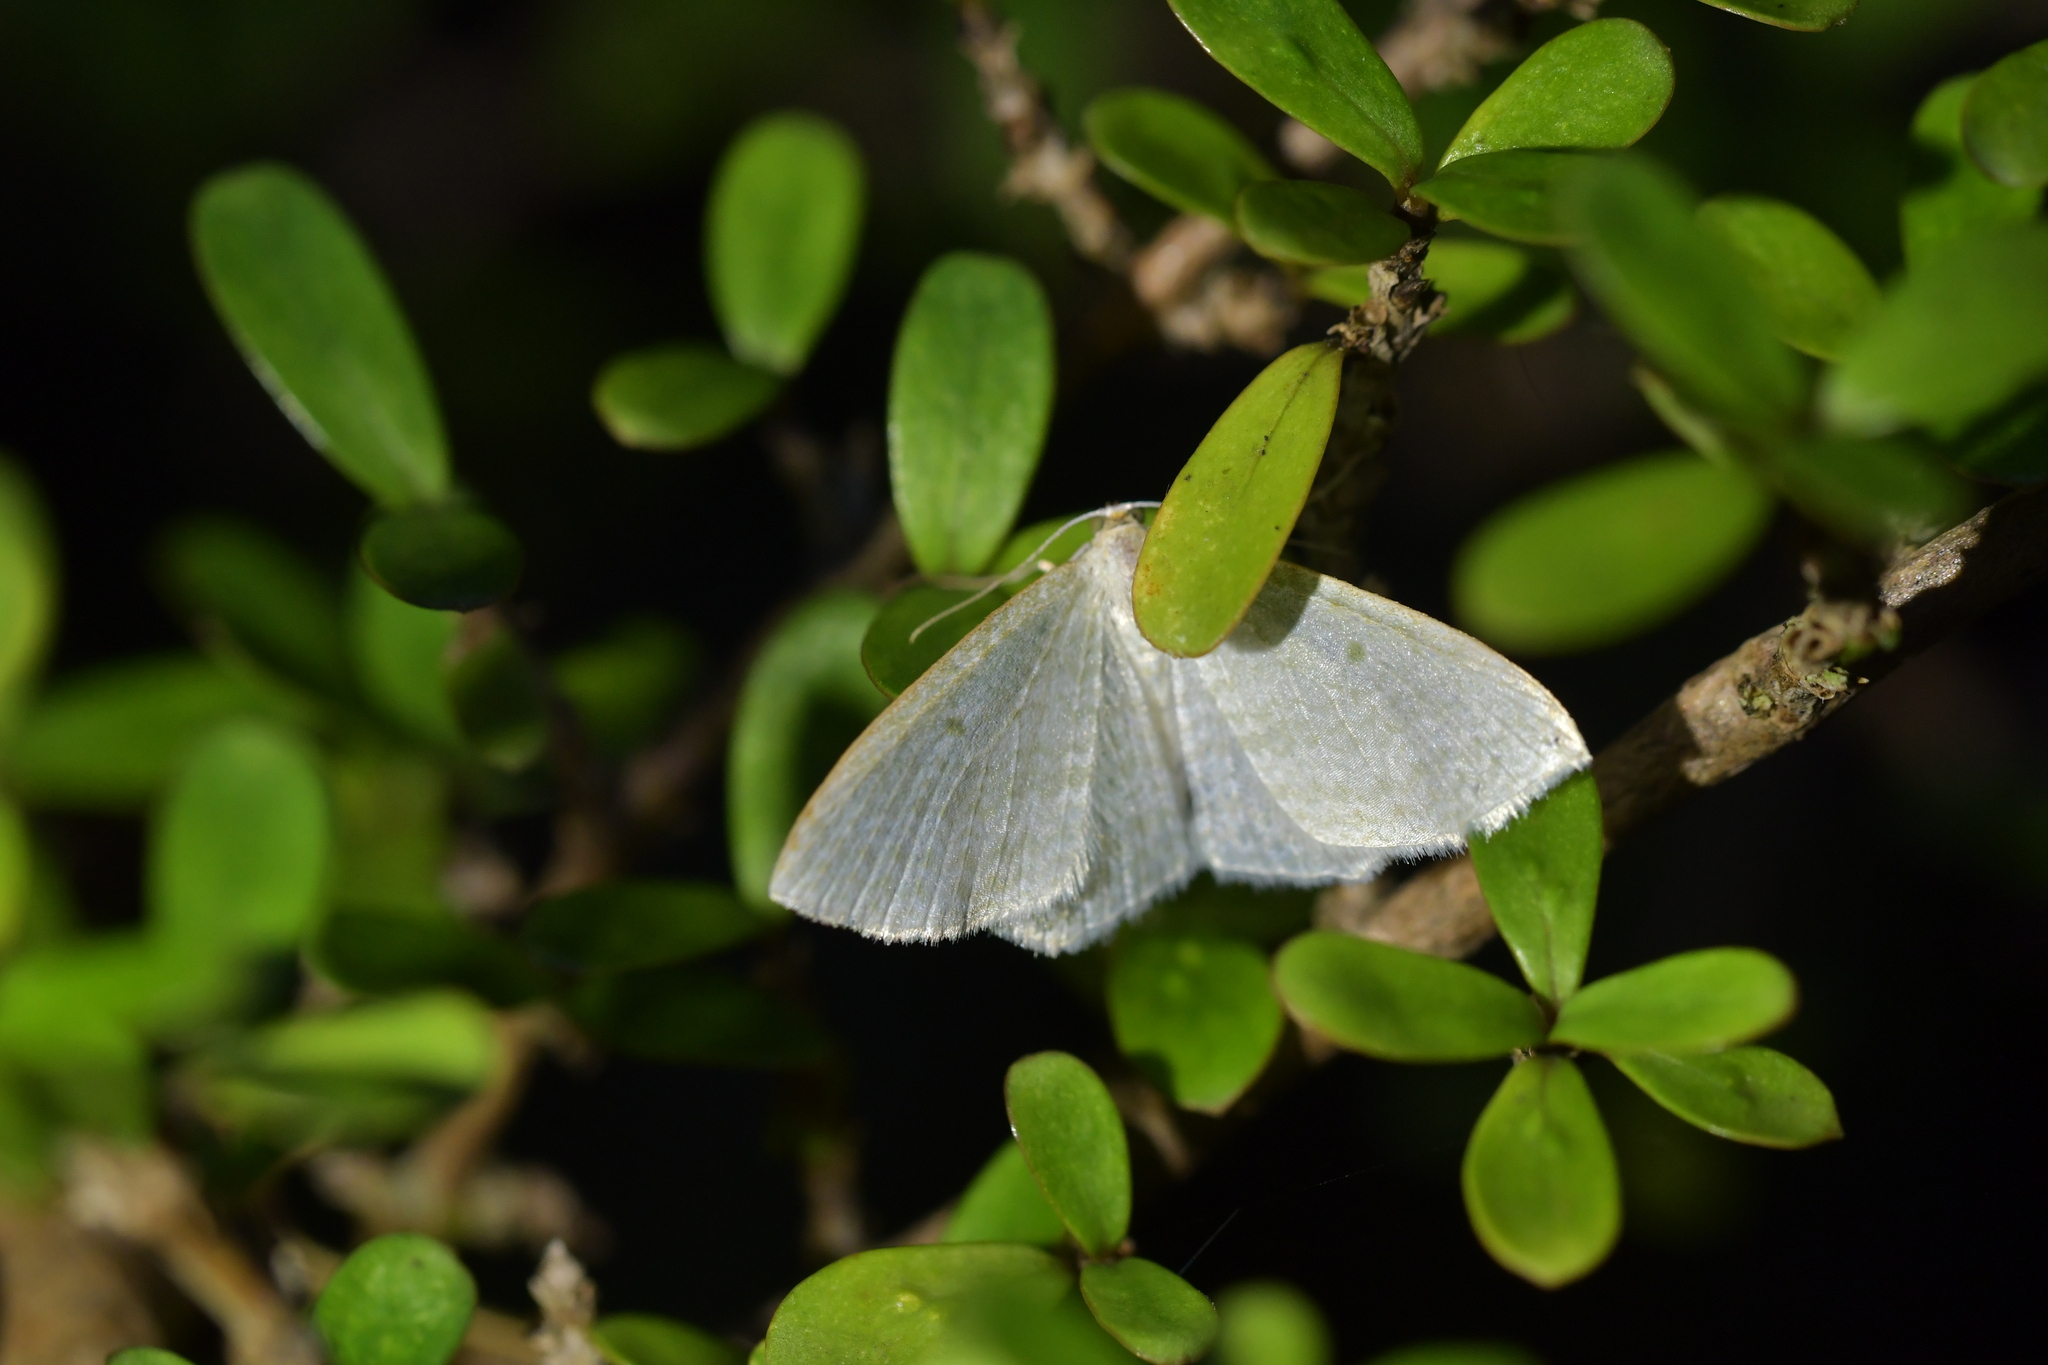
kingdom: Animalia
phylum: Arthropoda
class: Insecta
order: Lepidoptera
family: Geometridae
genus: Poecilasthena
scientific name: Poecilasthena pulchraria
